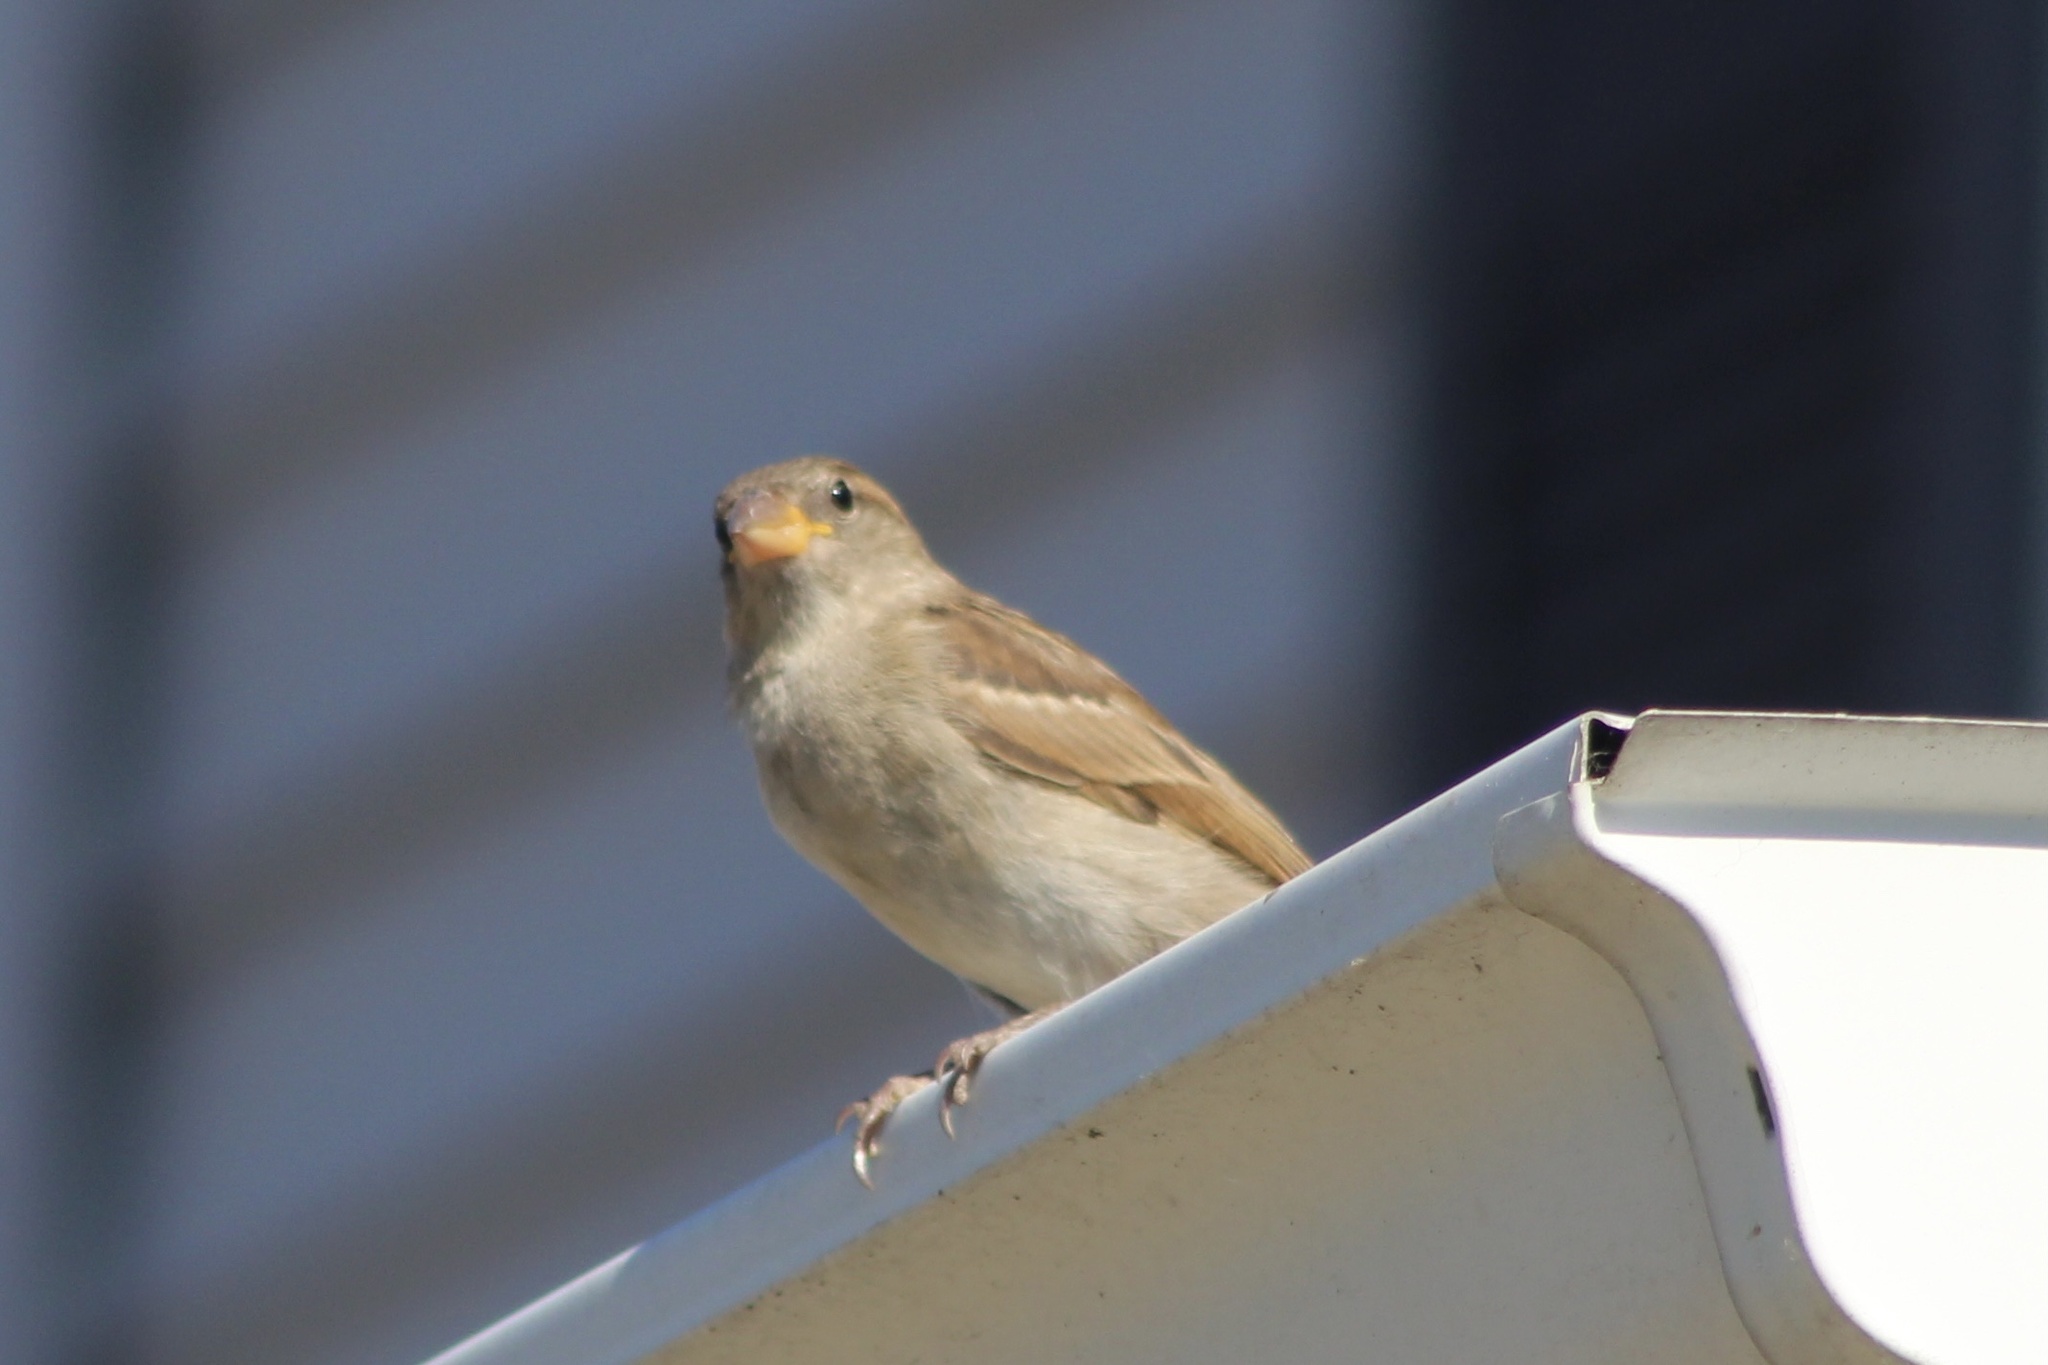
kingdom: Animalia
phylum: Chordata
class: Aves
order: Passeriformes
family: Passeridae
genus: Passer
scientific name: Passer domesticus
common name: House sparrow
